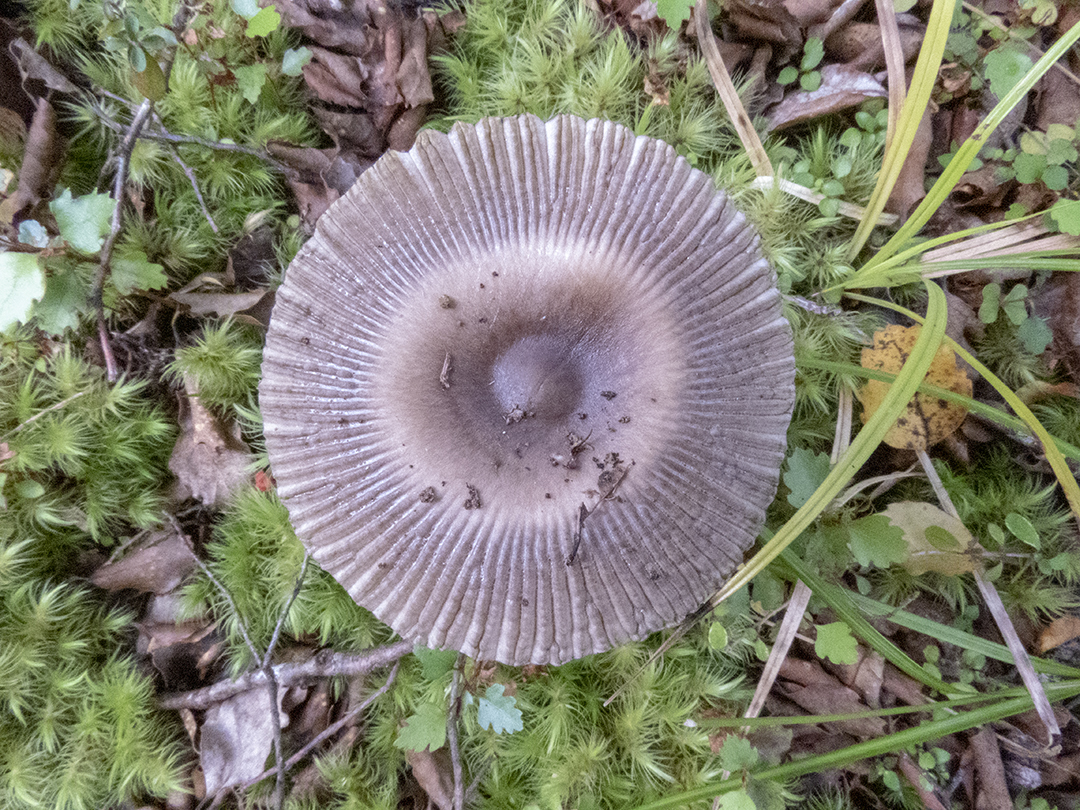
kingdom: Fungi
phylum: Basidiomycota
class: Agaricomycetes
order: Agaricales
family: Amanitaceae
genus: Amanita
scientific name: Amanita pekeoides
